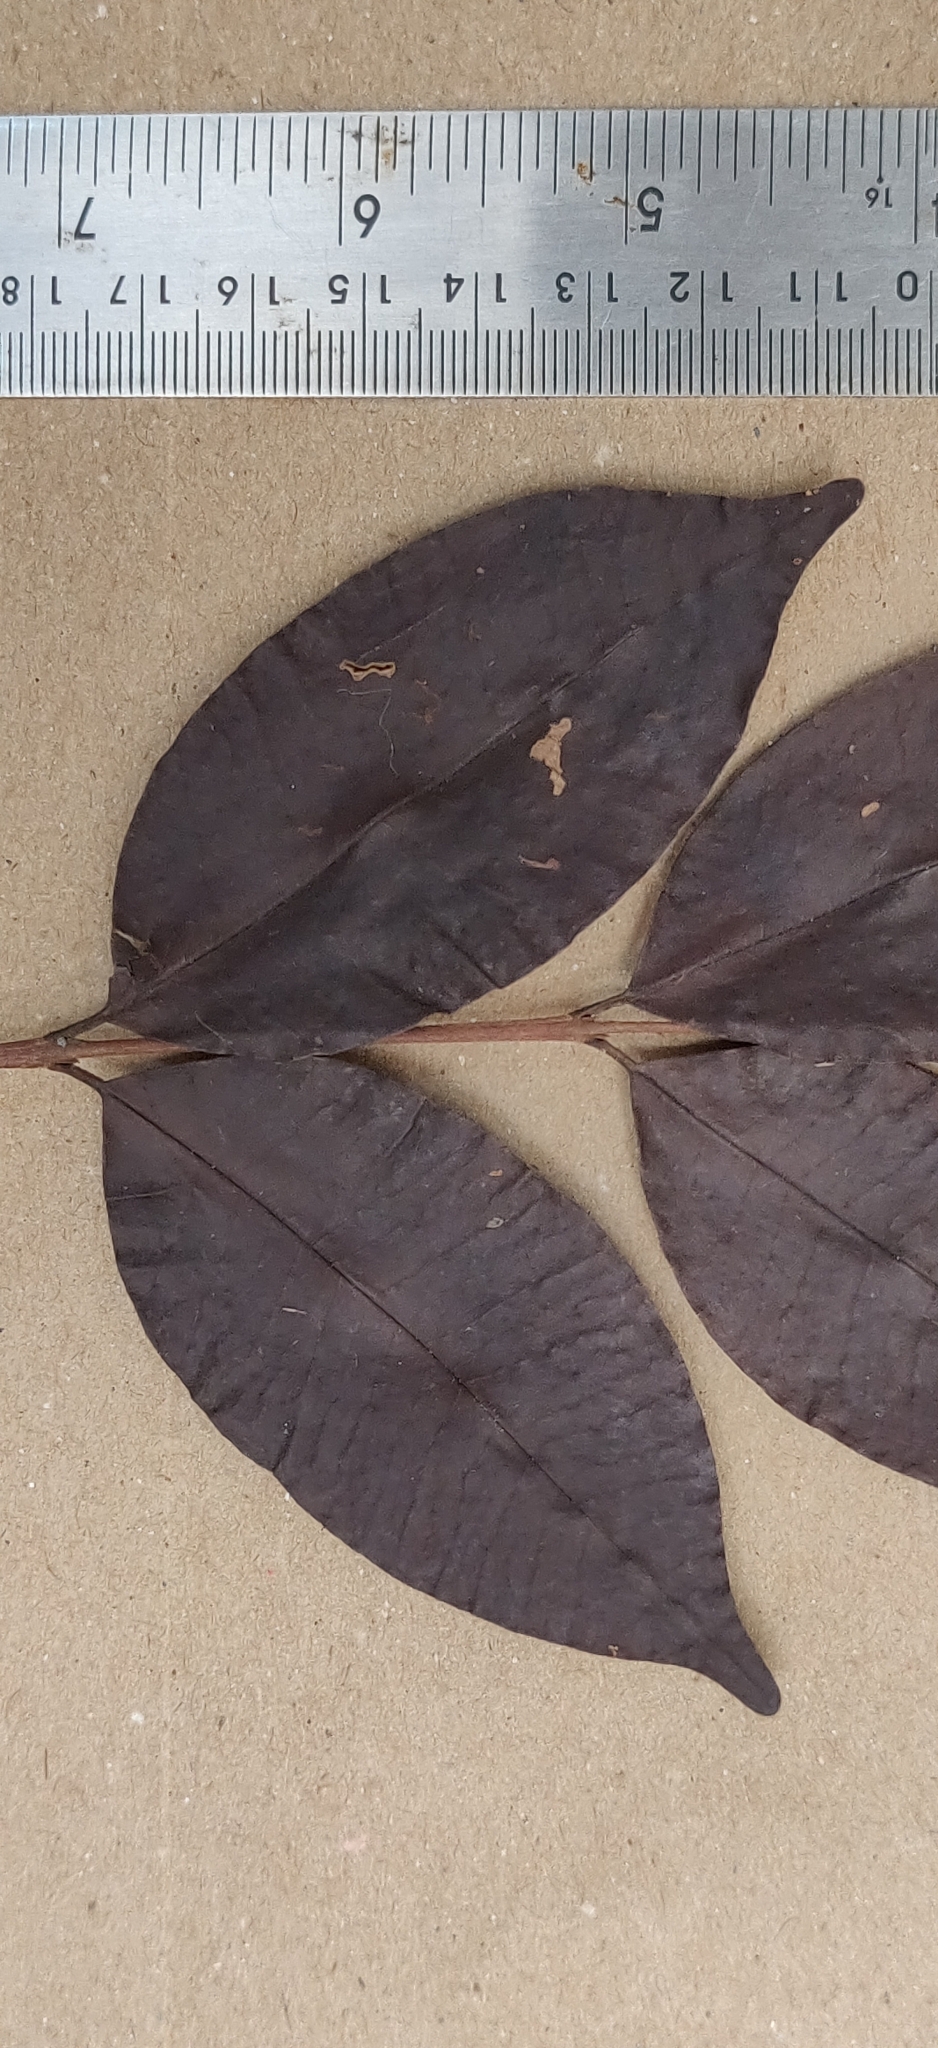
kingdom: Plantae
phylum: Tracheophyta
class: Magnoliopsida
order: Myrtales
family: Myrtaceae
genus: Syzygium
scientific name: Syzygium laetum
